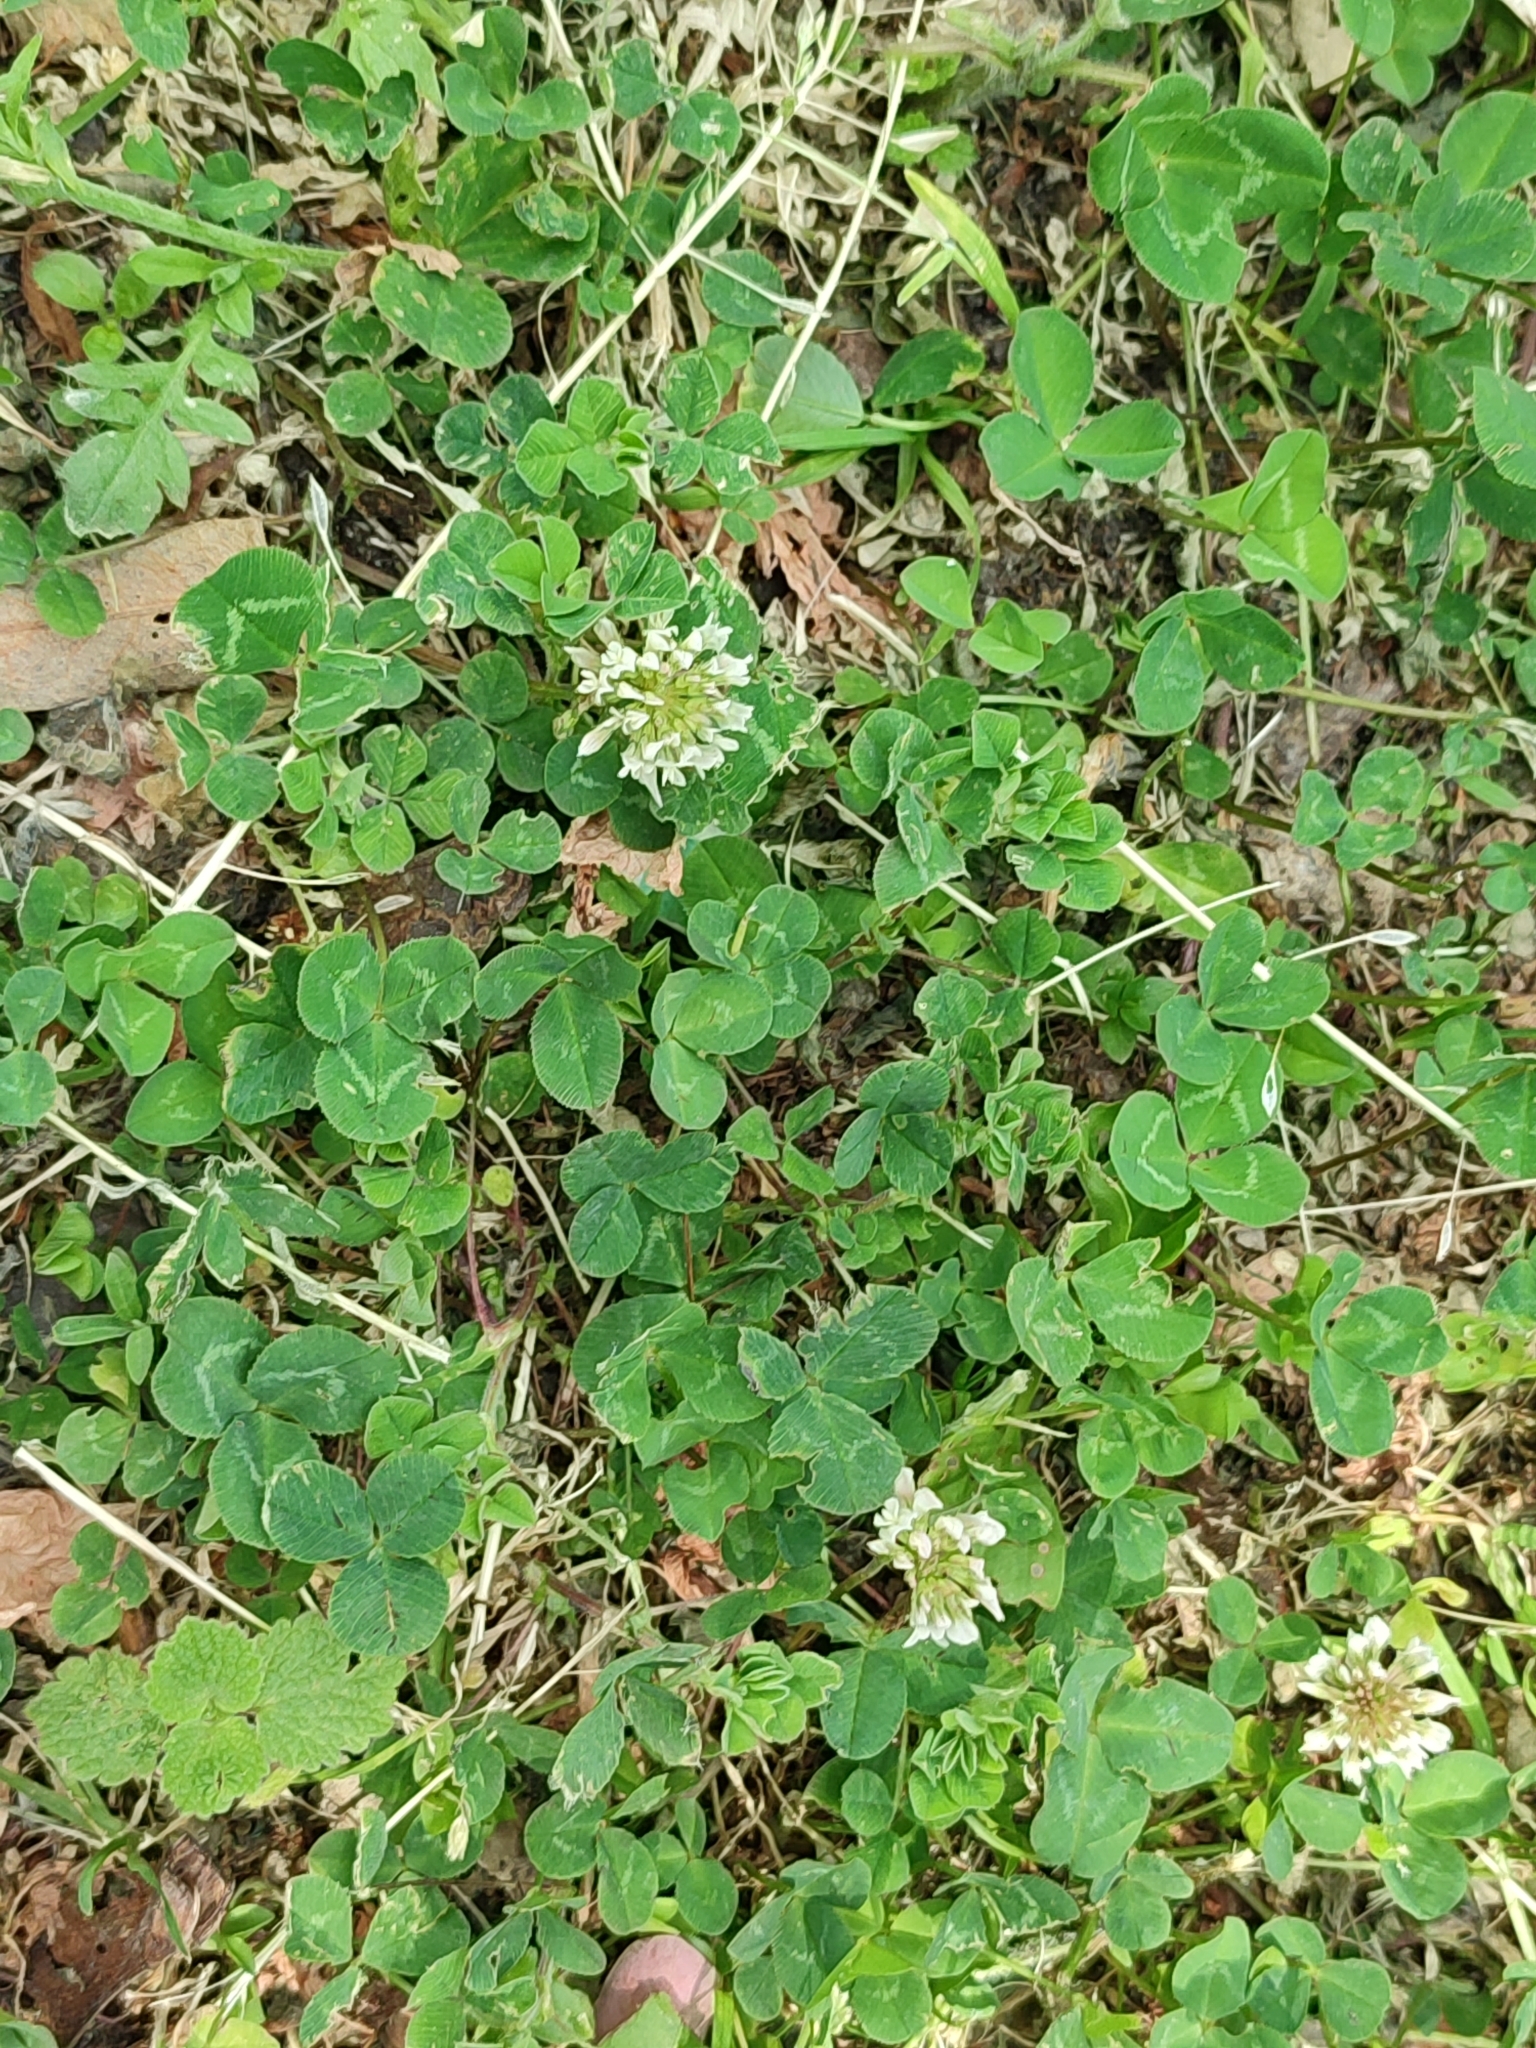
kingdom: Plantae
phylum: Tracheophyta
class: Magnoliopsida
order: Fabales
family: Fabaceae
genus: Trifolium
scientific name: Trifolium repens
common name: White clover
